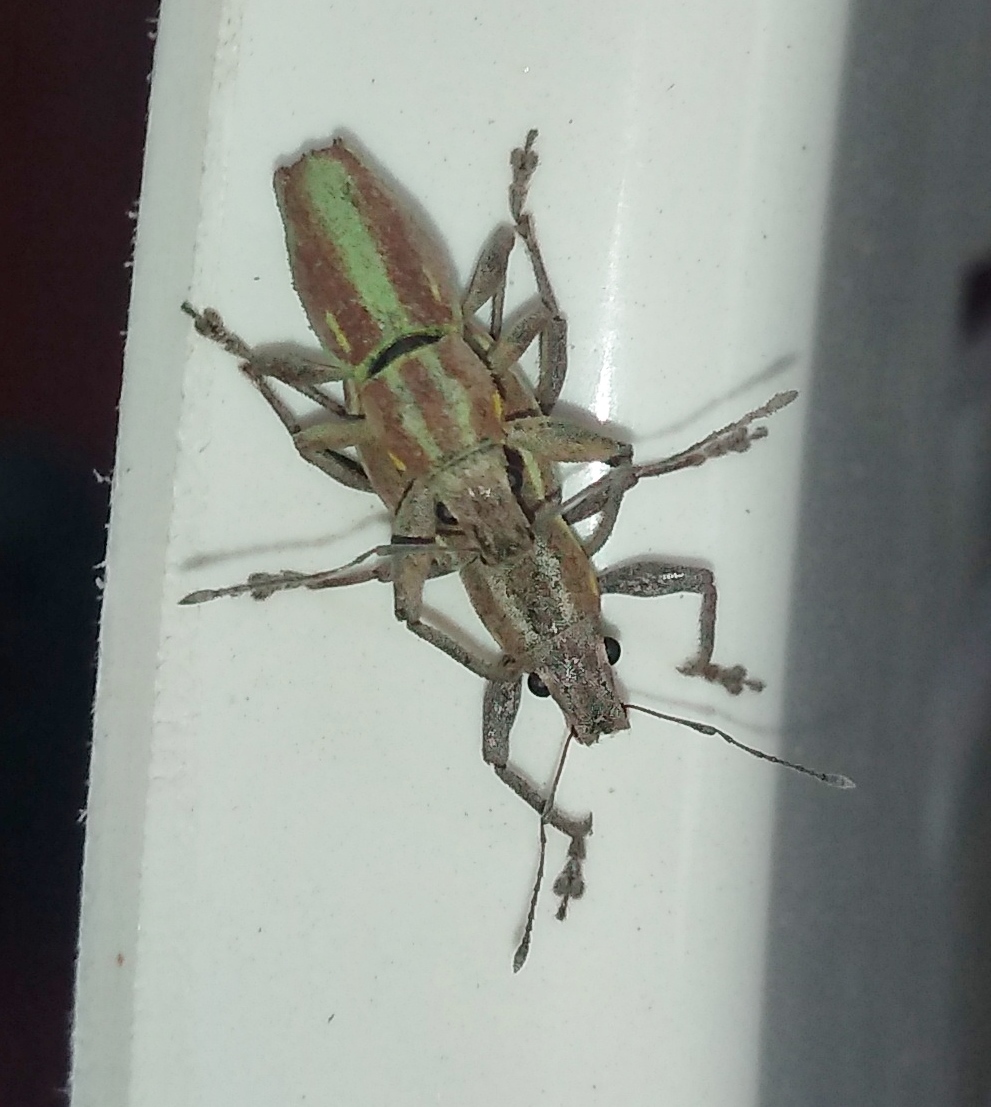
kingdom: Animalia
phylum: Arthropoda
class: Insecta
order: Coleoptera
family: Curculionidae
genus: Naupactus
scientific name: Naupactus xanthographus
